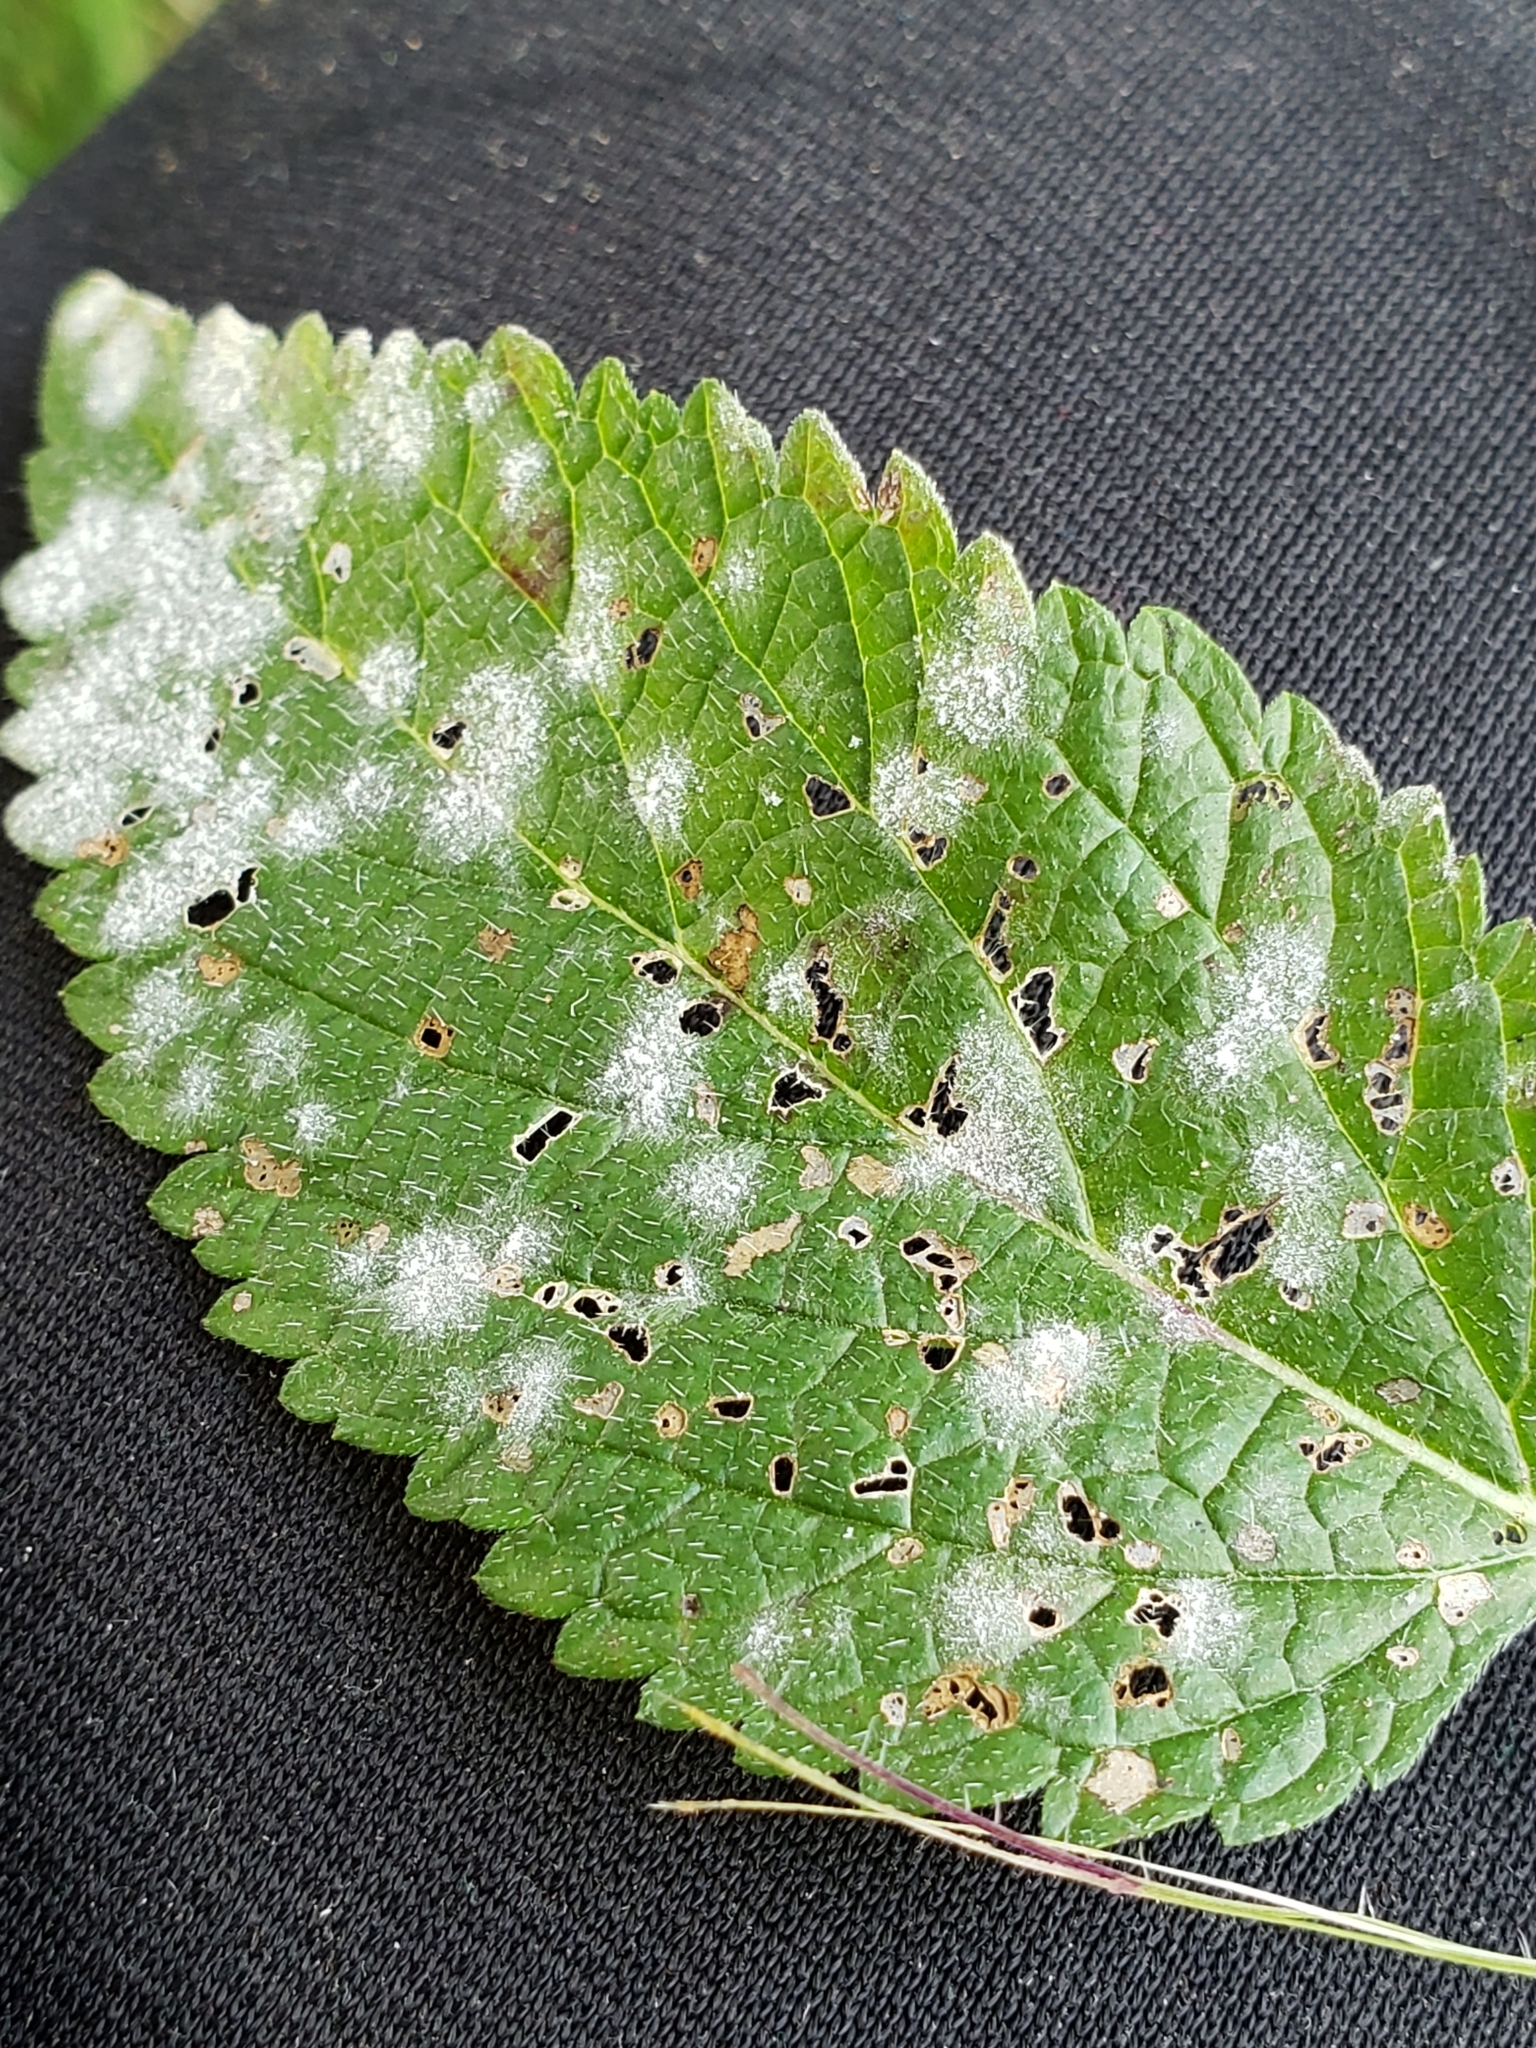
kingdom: Fungi
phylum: Ascomycota
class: Leotiomycetes
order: Helotiales
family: Erysiphaceae
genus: Golovinomyces
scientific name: Golovinomyces verbenae
